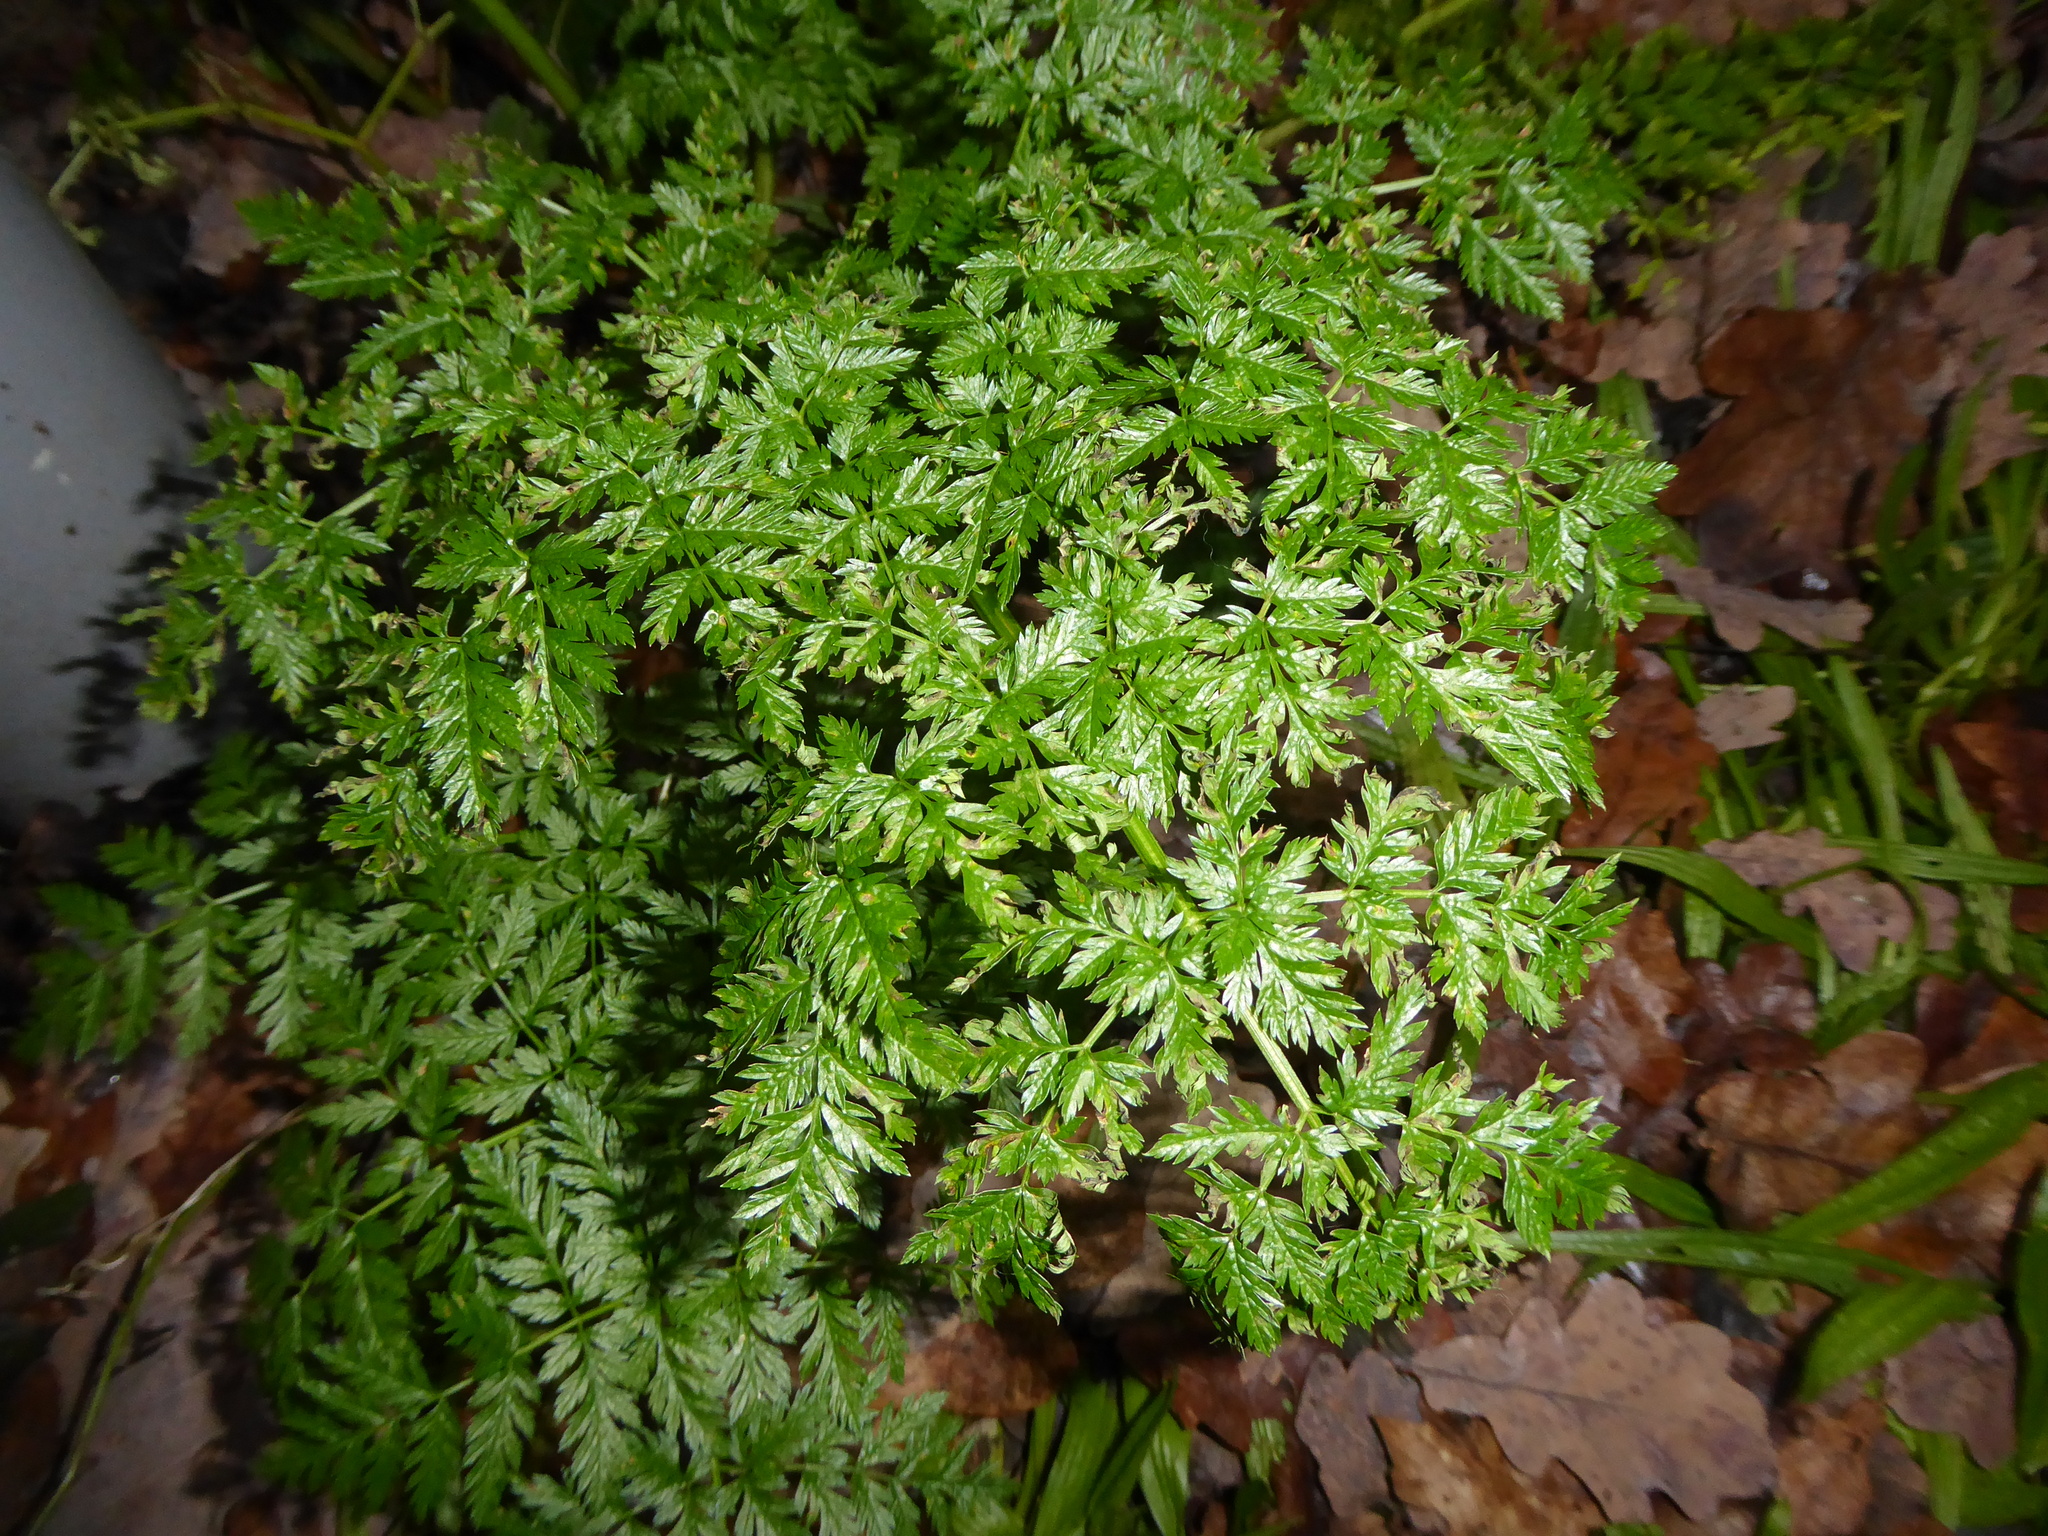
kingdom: Plantae
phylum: Tracheophyta
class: Magnoliopsida
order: Apiales
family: Apiaceae
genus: Conium
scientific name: Conium maculatum
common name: Hemlock
